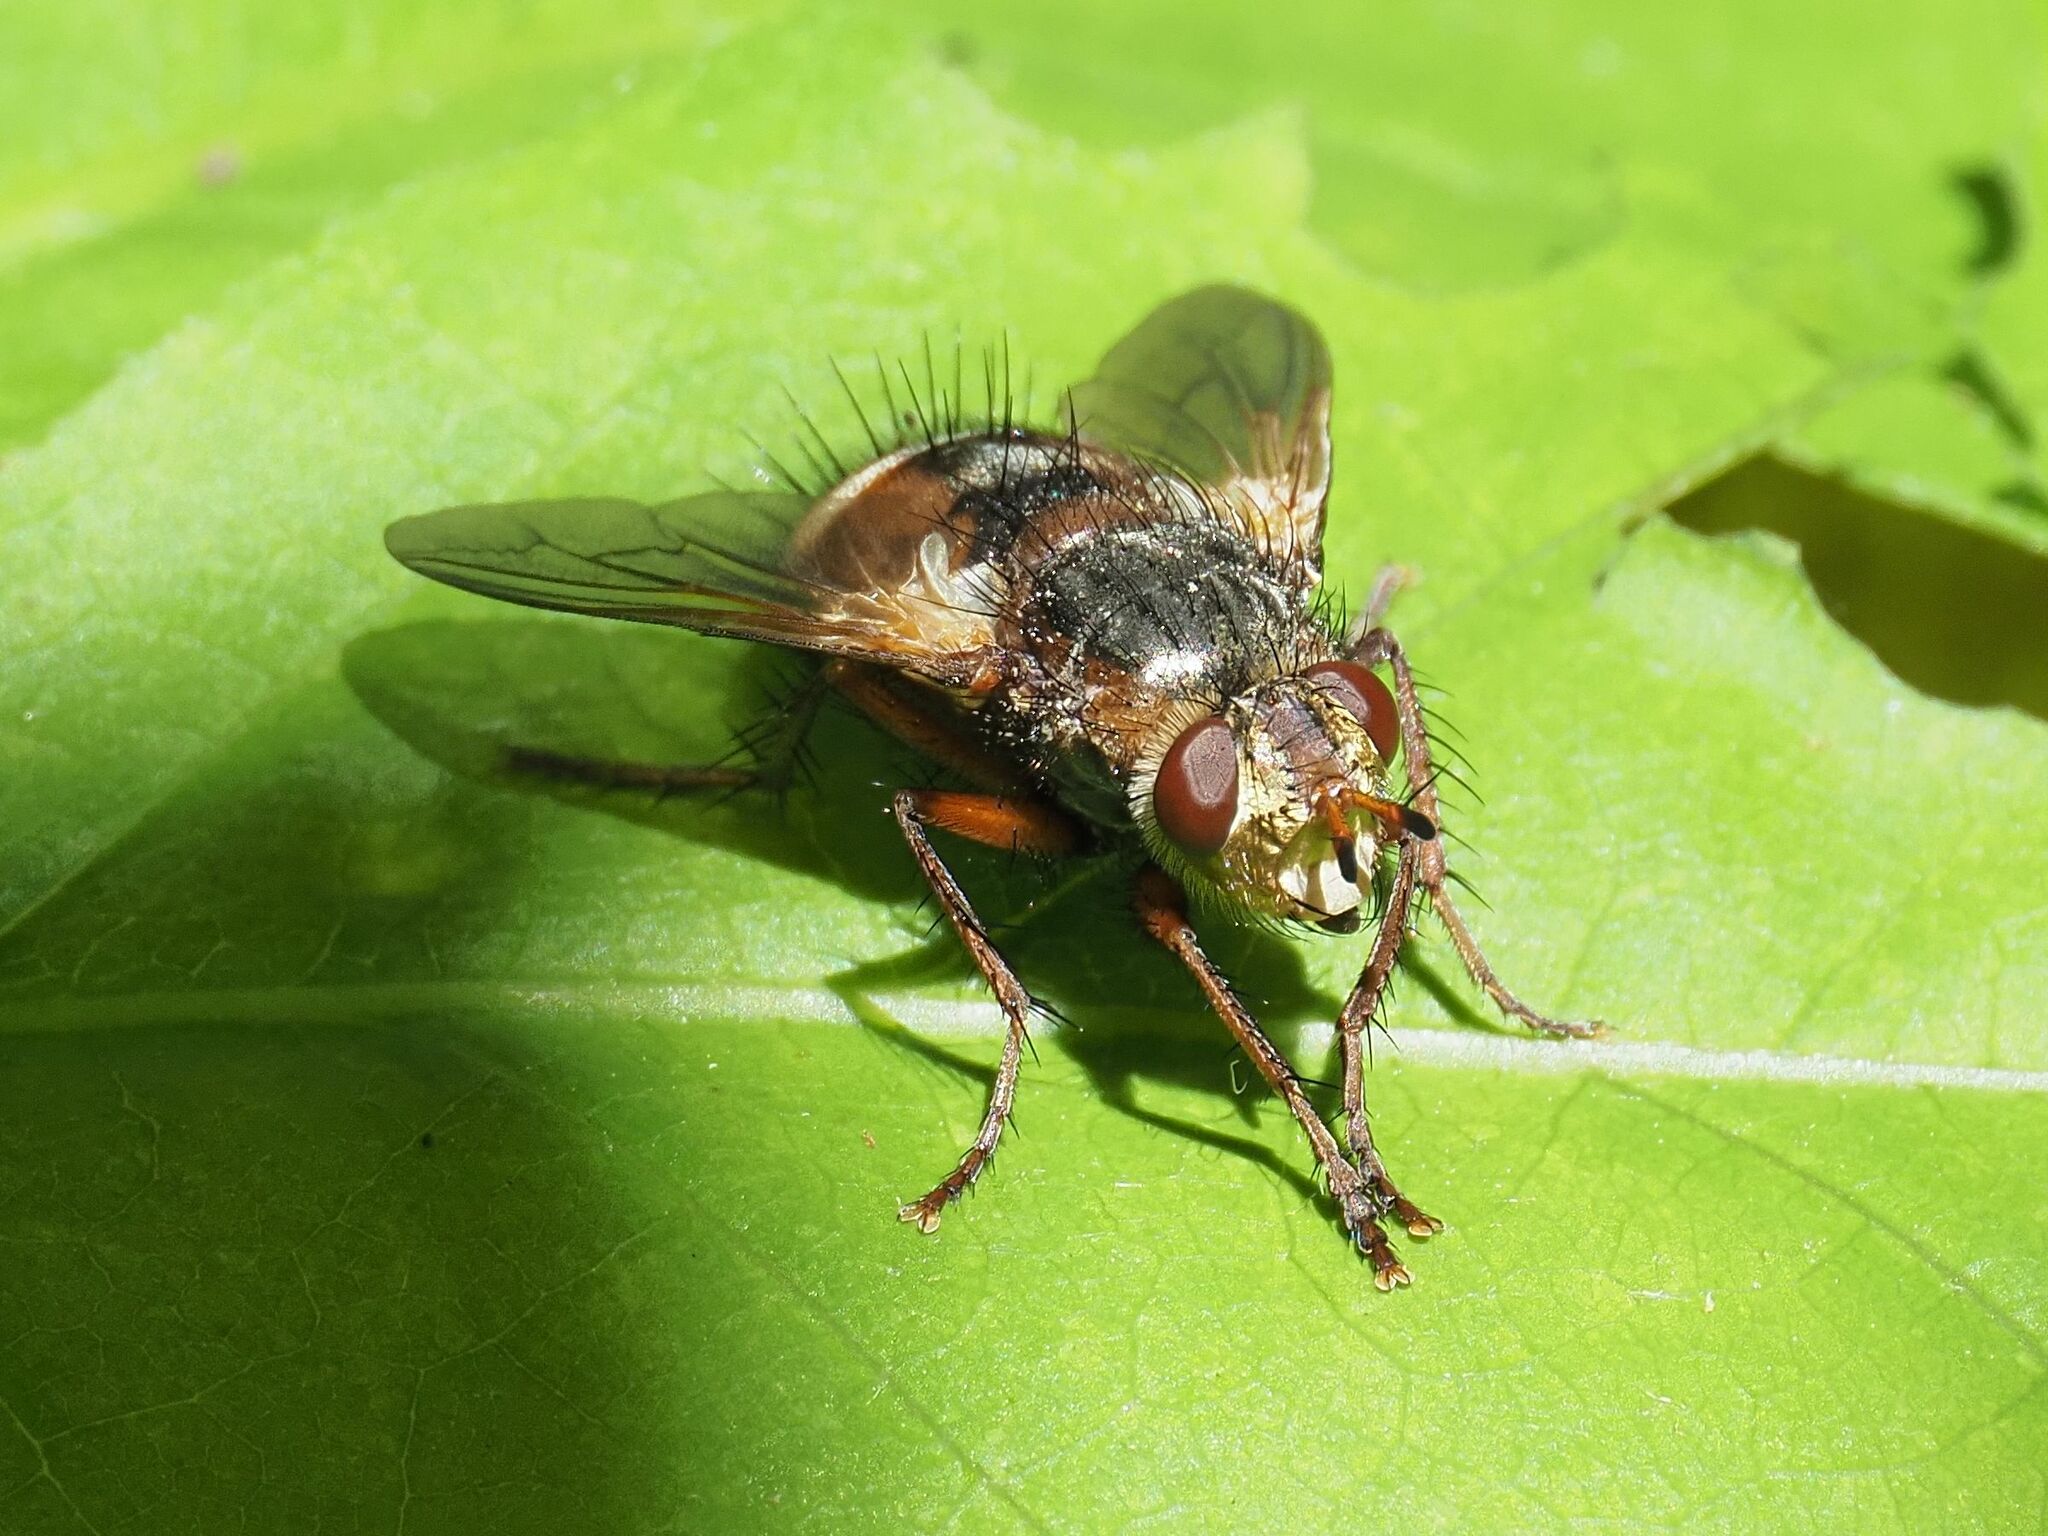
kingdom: Animalia
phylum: Arthropoda
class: Insecta
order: Diptera
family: Tachinidae
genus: Tachina
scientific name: Tachina fera
